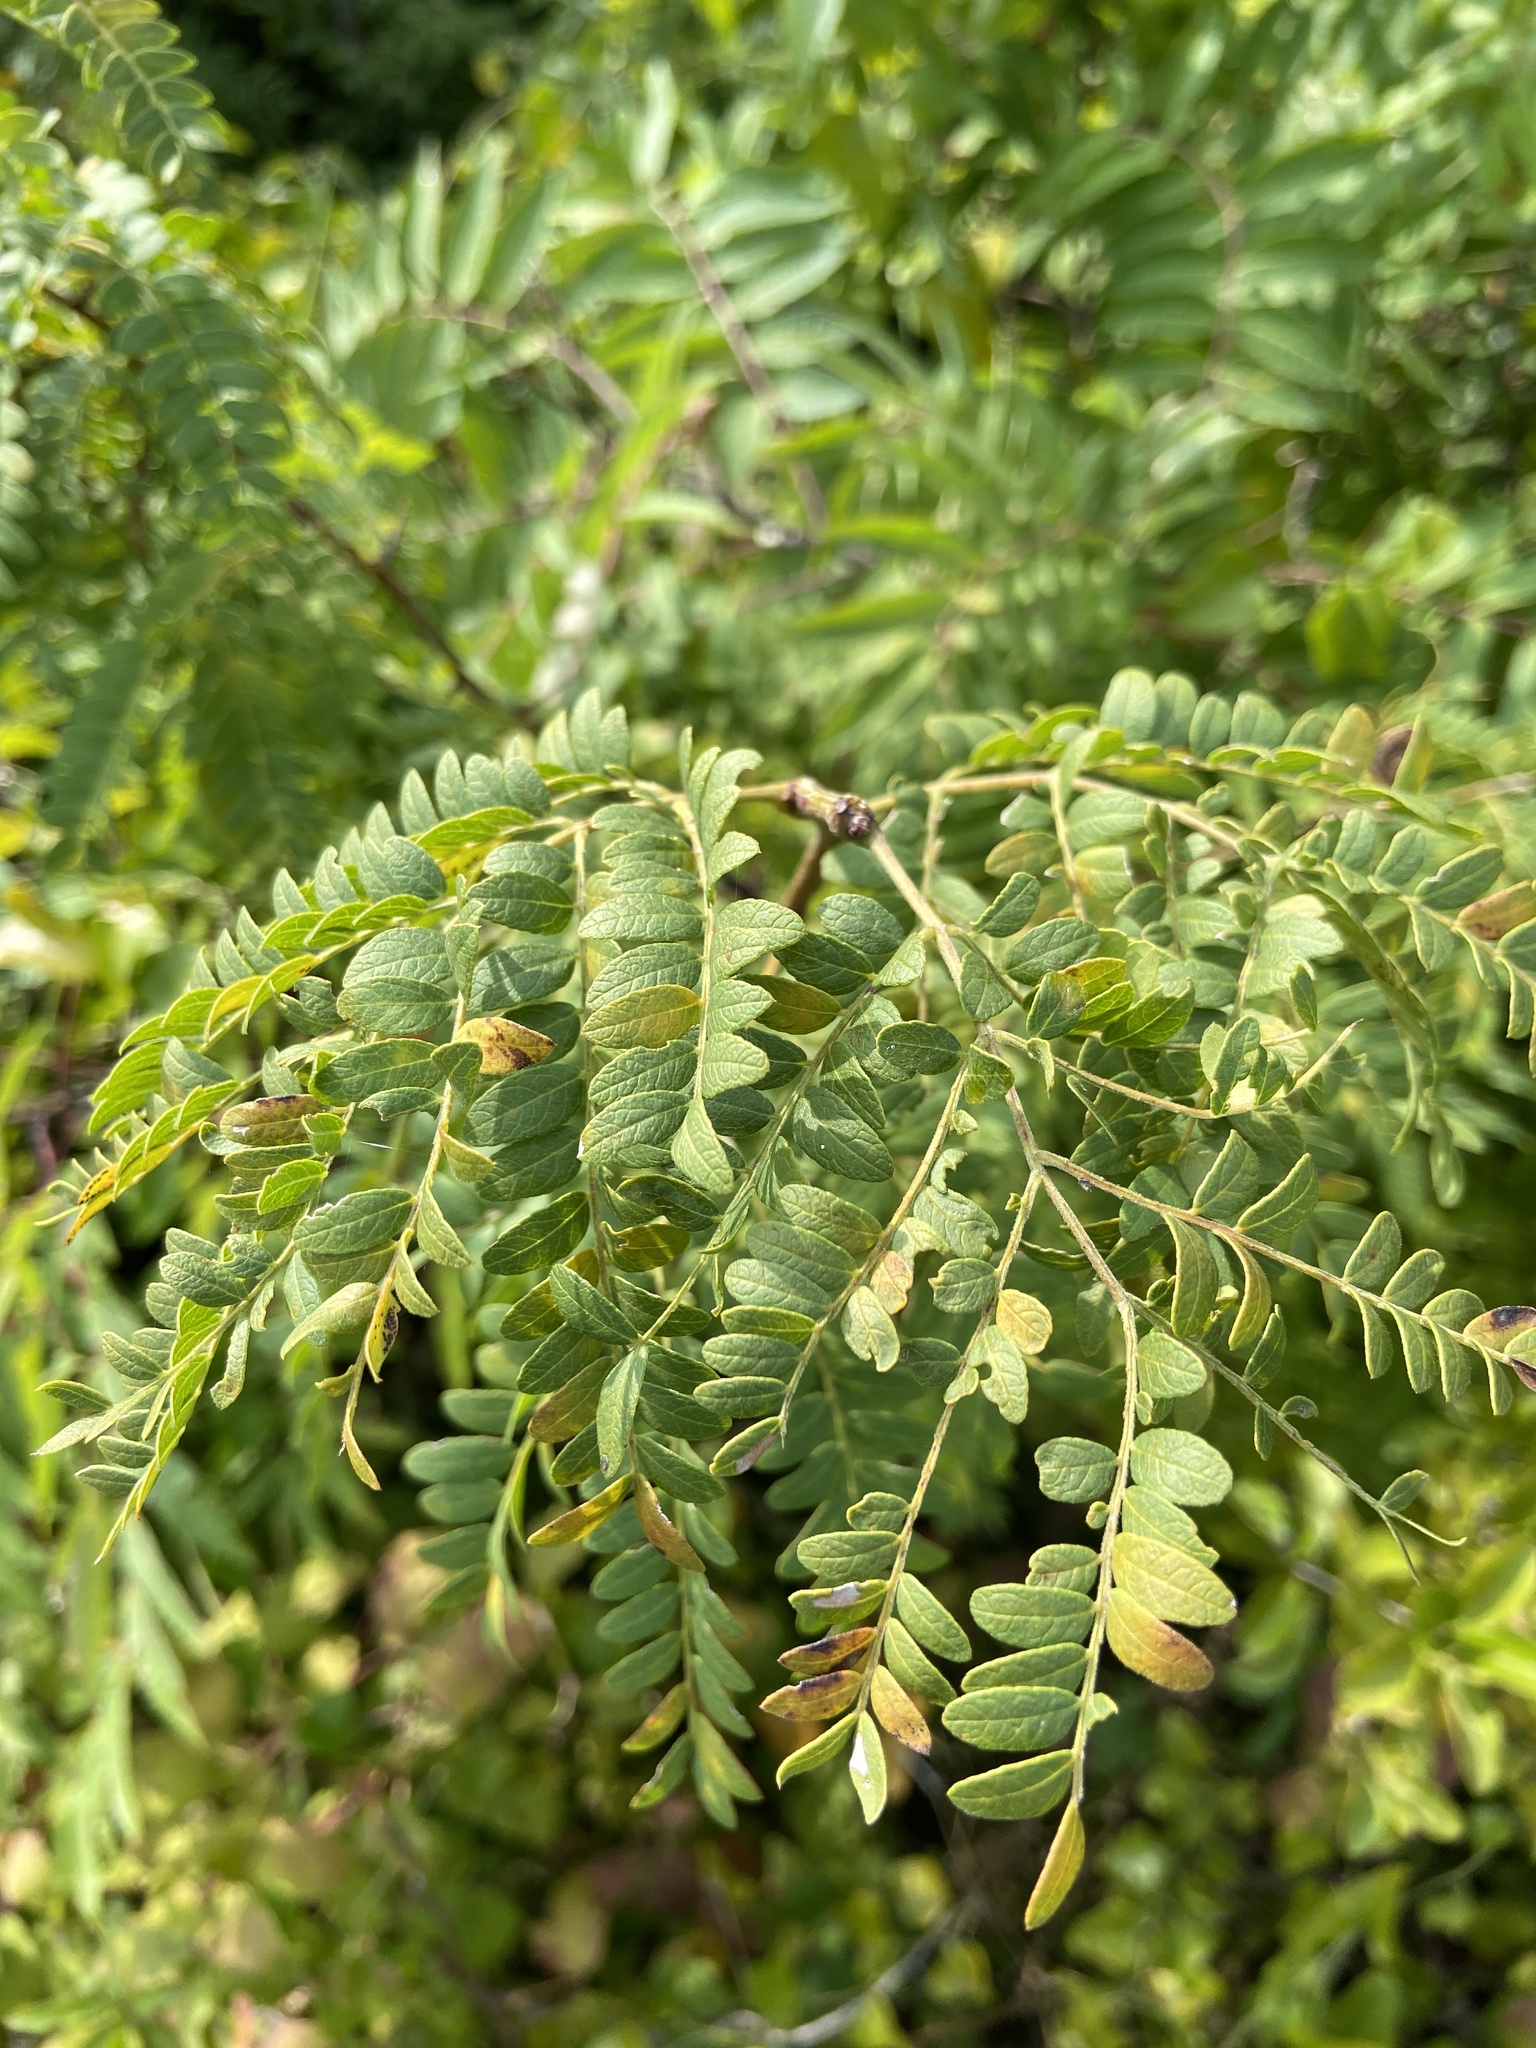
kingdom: Plantae
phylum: Tracheophyta
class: Magnoliopsida
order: Fabales
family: Fabaceae
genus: Gleditsia
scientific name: Gleditsia triacanthos
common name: Common honeylocust
